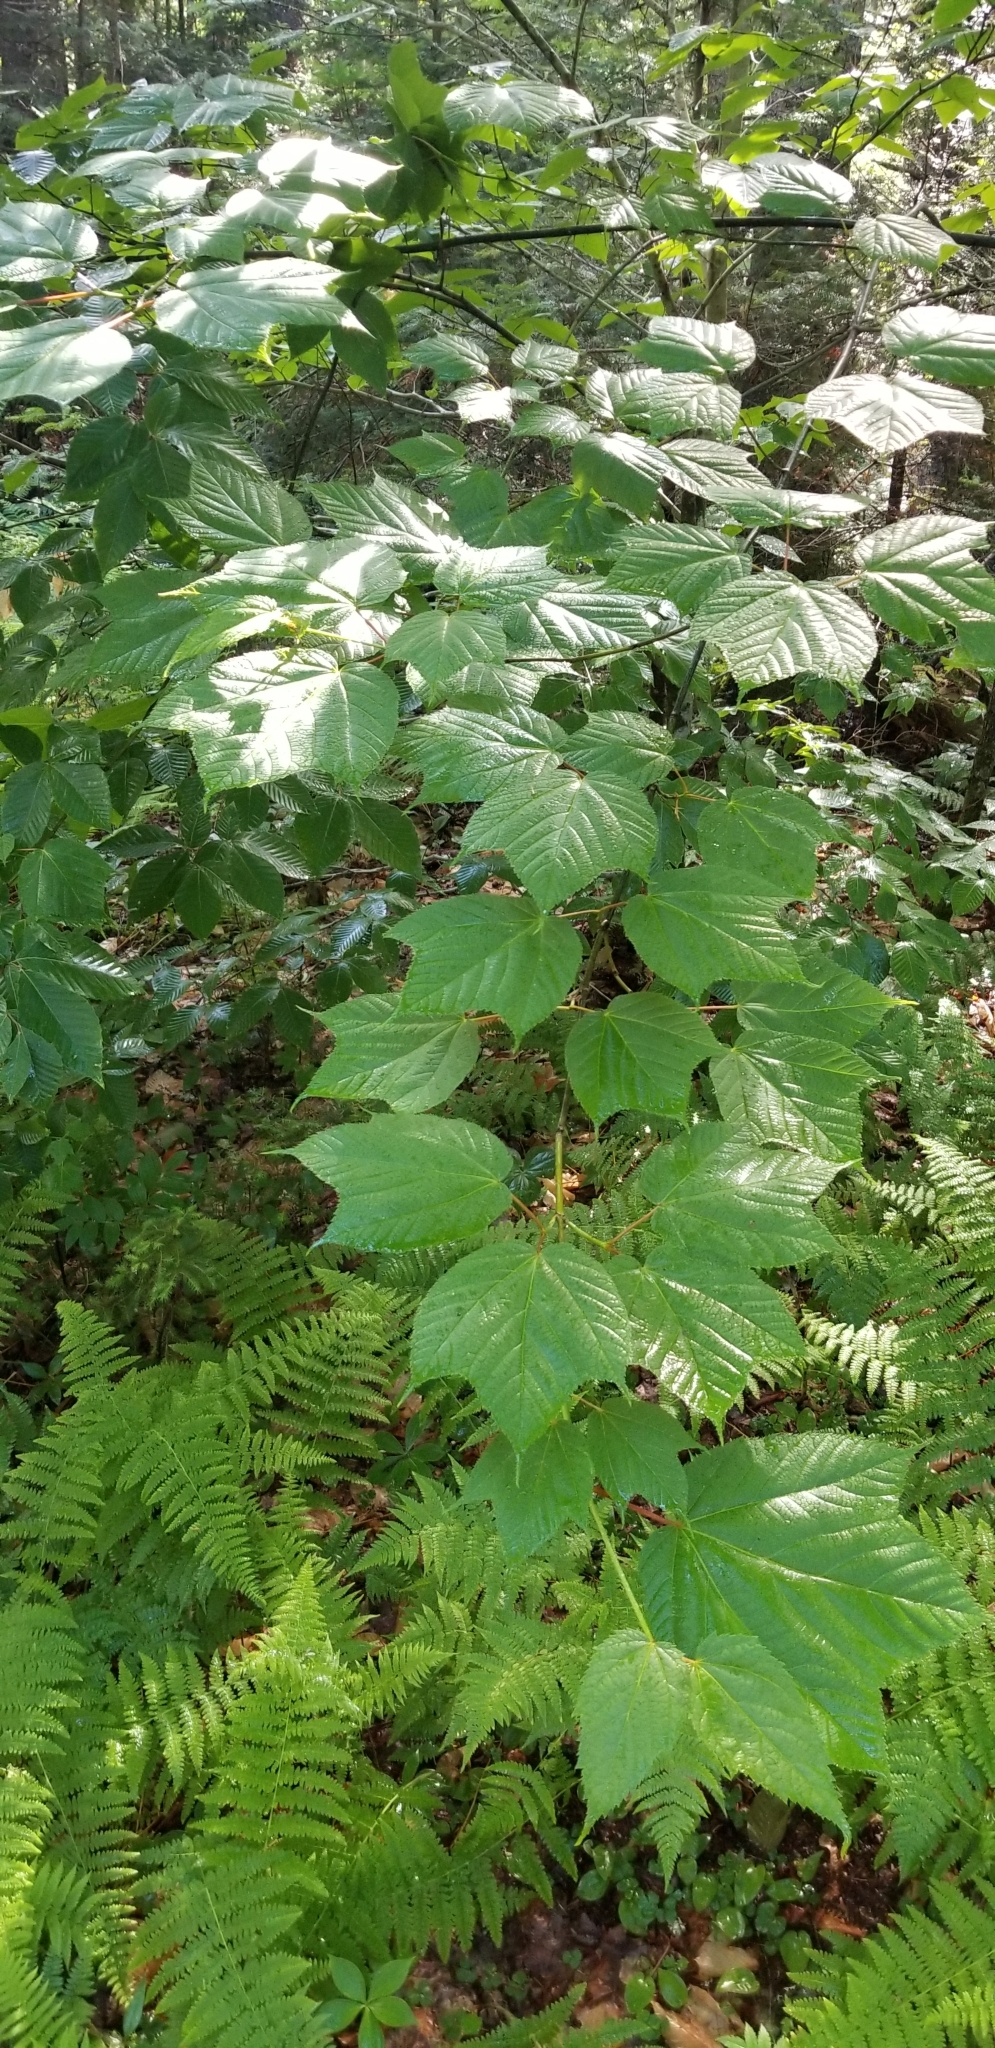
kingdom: Plantae
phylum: Tracheophyta
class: Magnoliopsida
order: Sapindales
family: Sapindaceae
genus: Acer
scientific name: Acer pensylvanicum
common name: Moosewood
